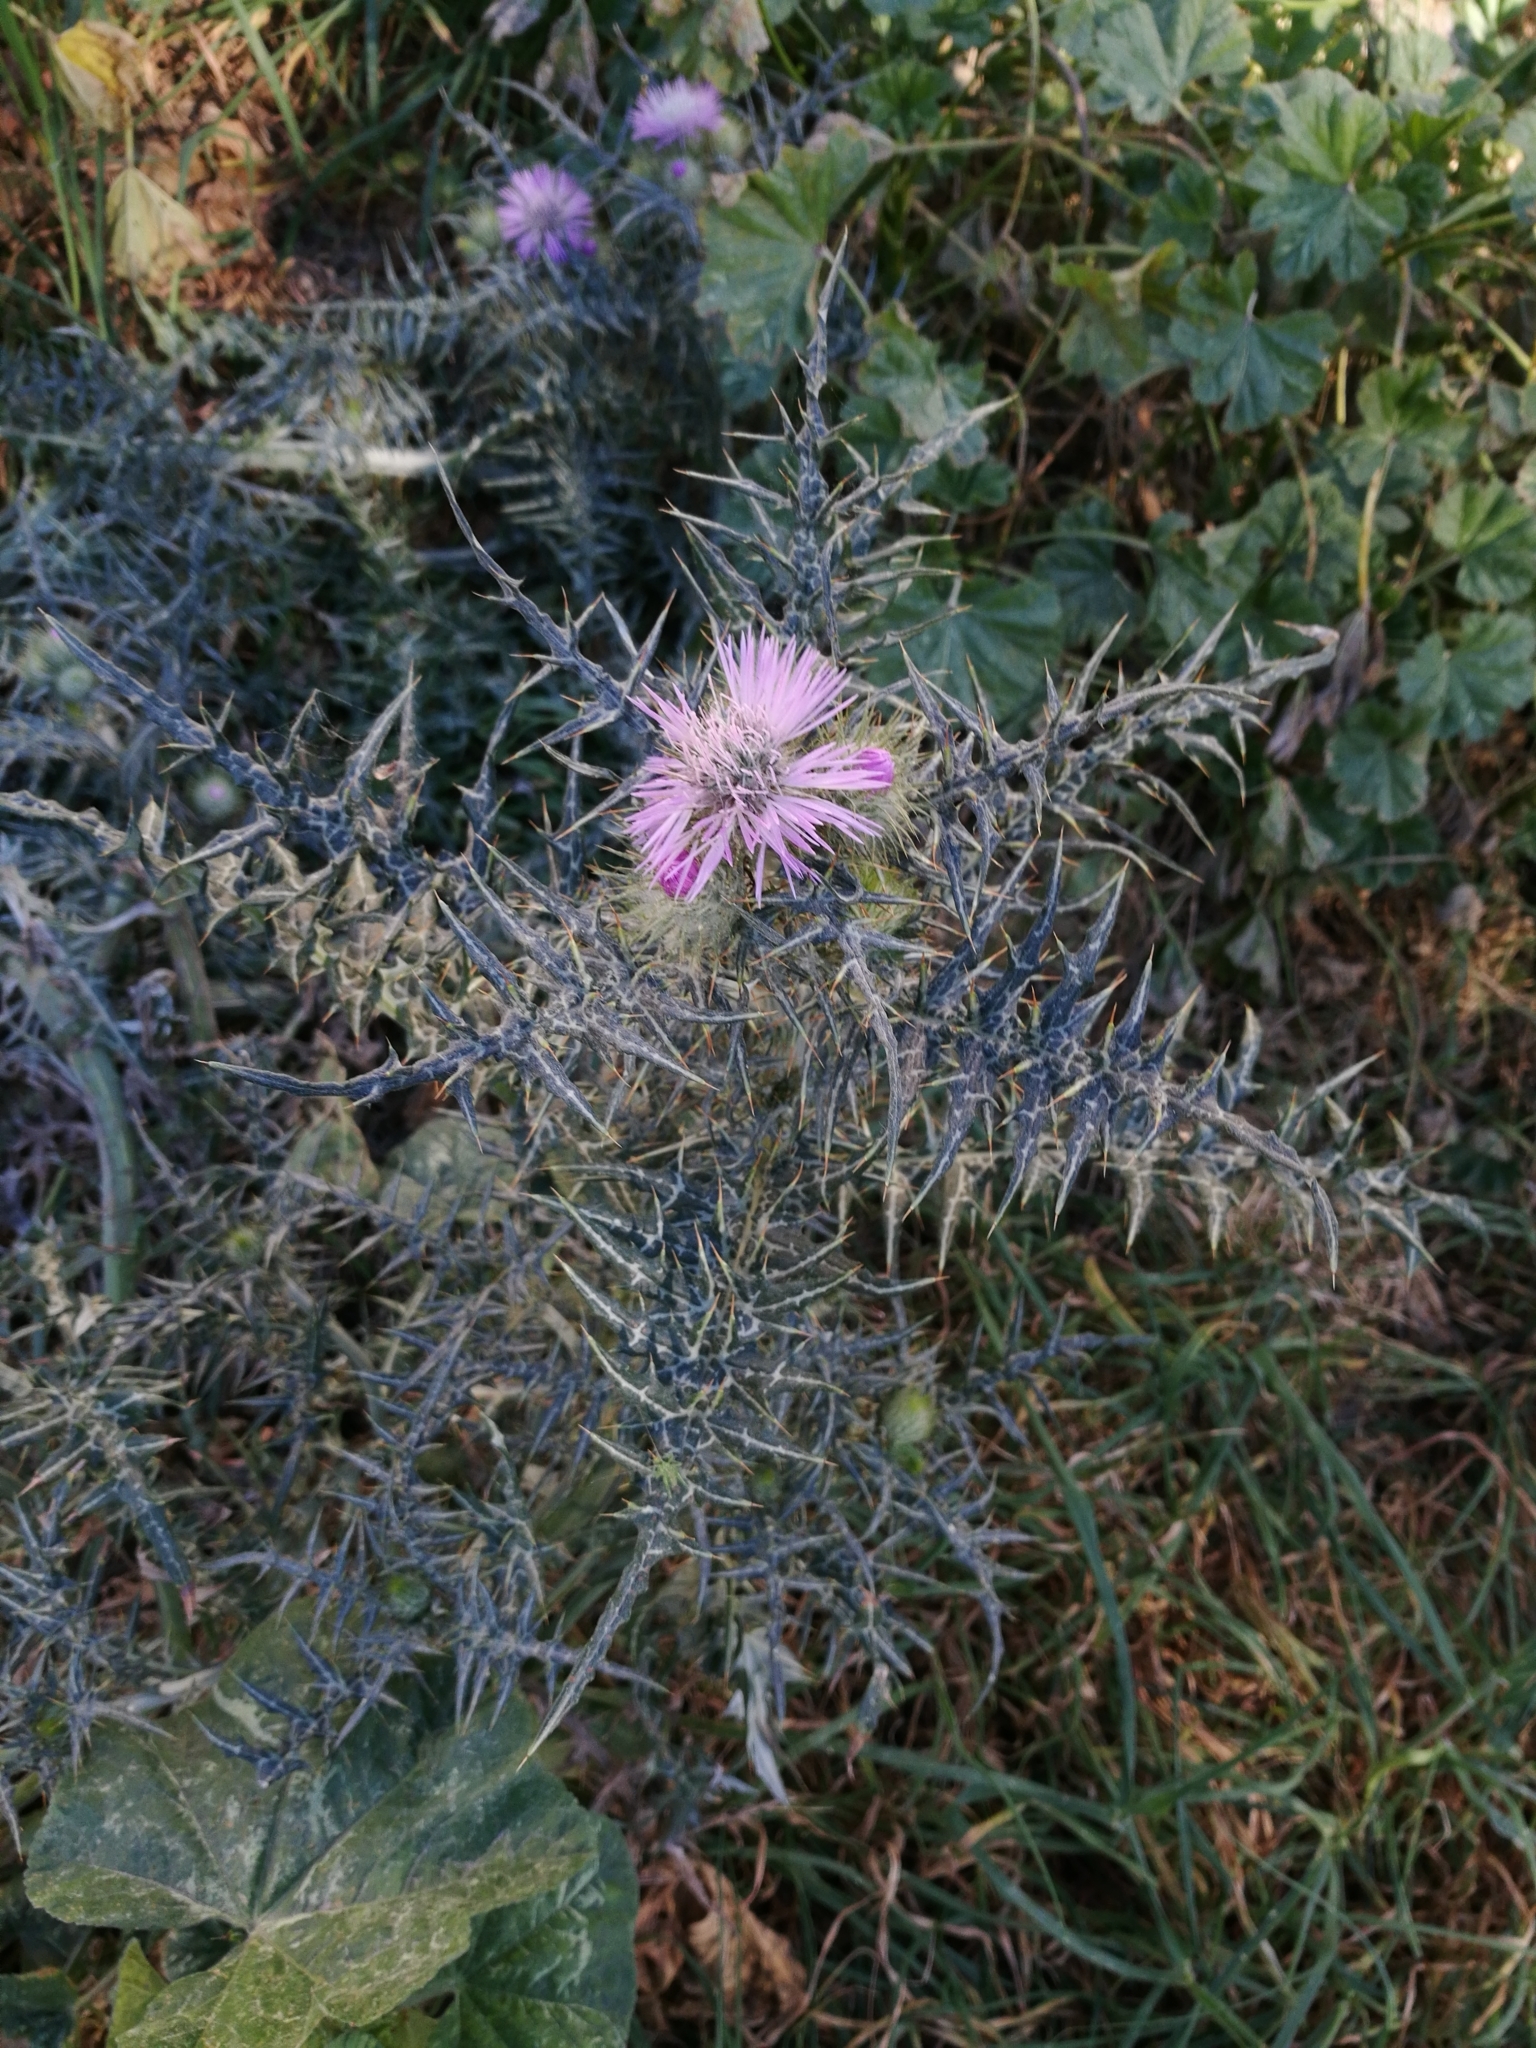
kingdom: Plantae
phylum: Tracheophyta
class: Magnoliopsida
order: Asterales
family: Asteraceae
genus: Galactites
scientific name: Galactites tomentosa
